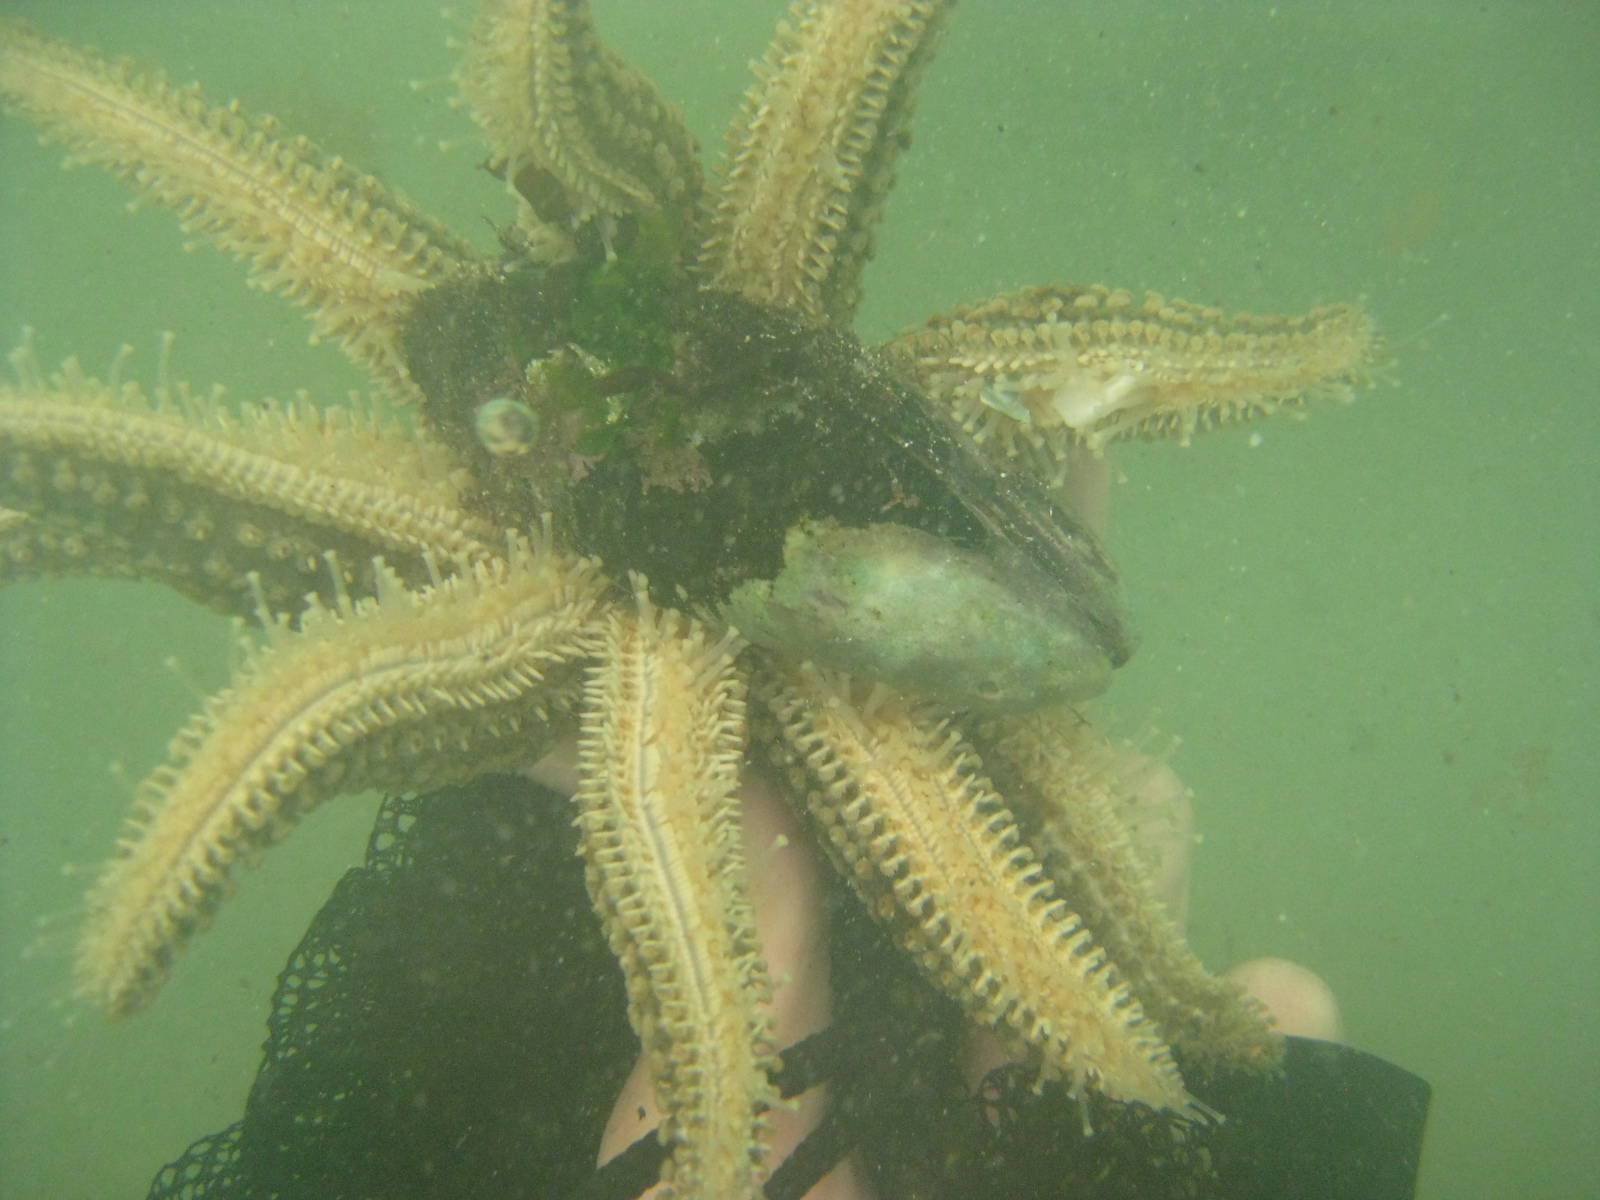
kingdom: Animalia
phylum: Echinodermata
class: Asteroidea
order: Forcipulatida
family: Asteriidae
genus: Coscinasterias
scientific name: Coscinasterias muricata
